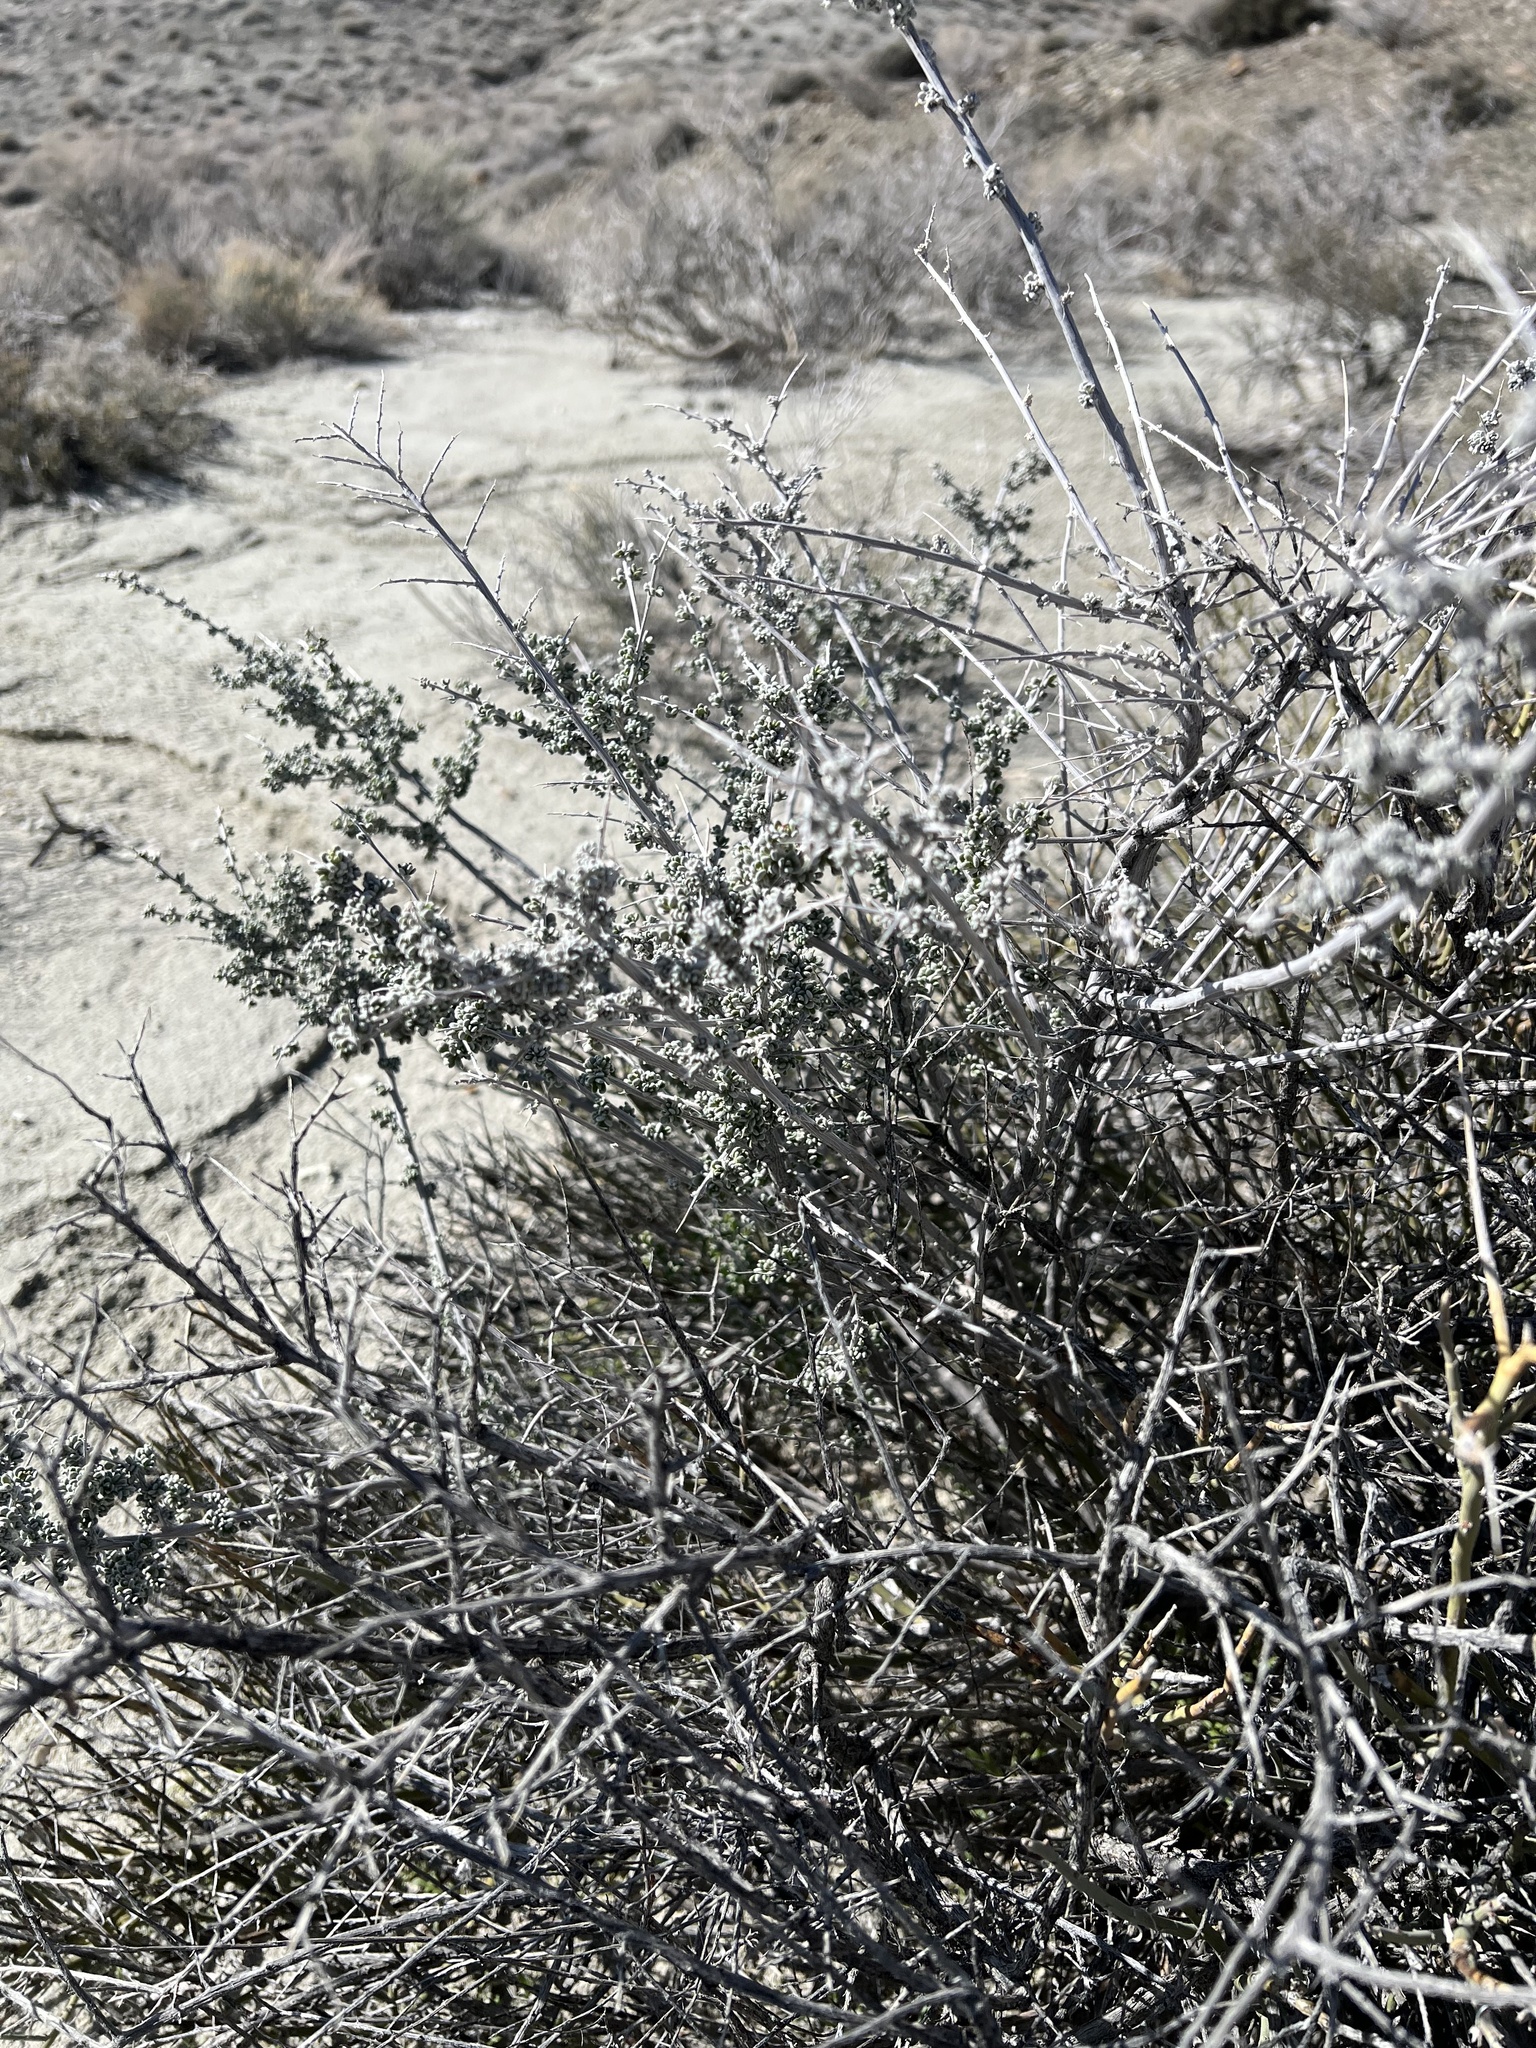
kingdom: Plantae
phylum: Tracheophyta
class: Magnoliopsida
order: Caryophyllales
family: Amaranthaceae
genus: Grayia
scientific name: Grayia spinosa
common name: Spiny hopsage
